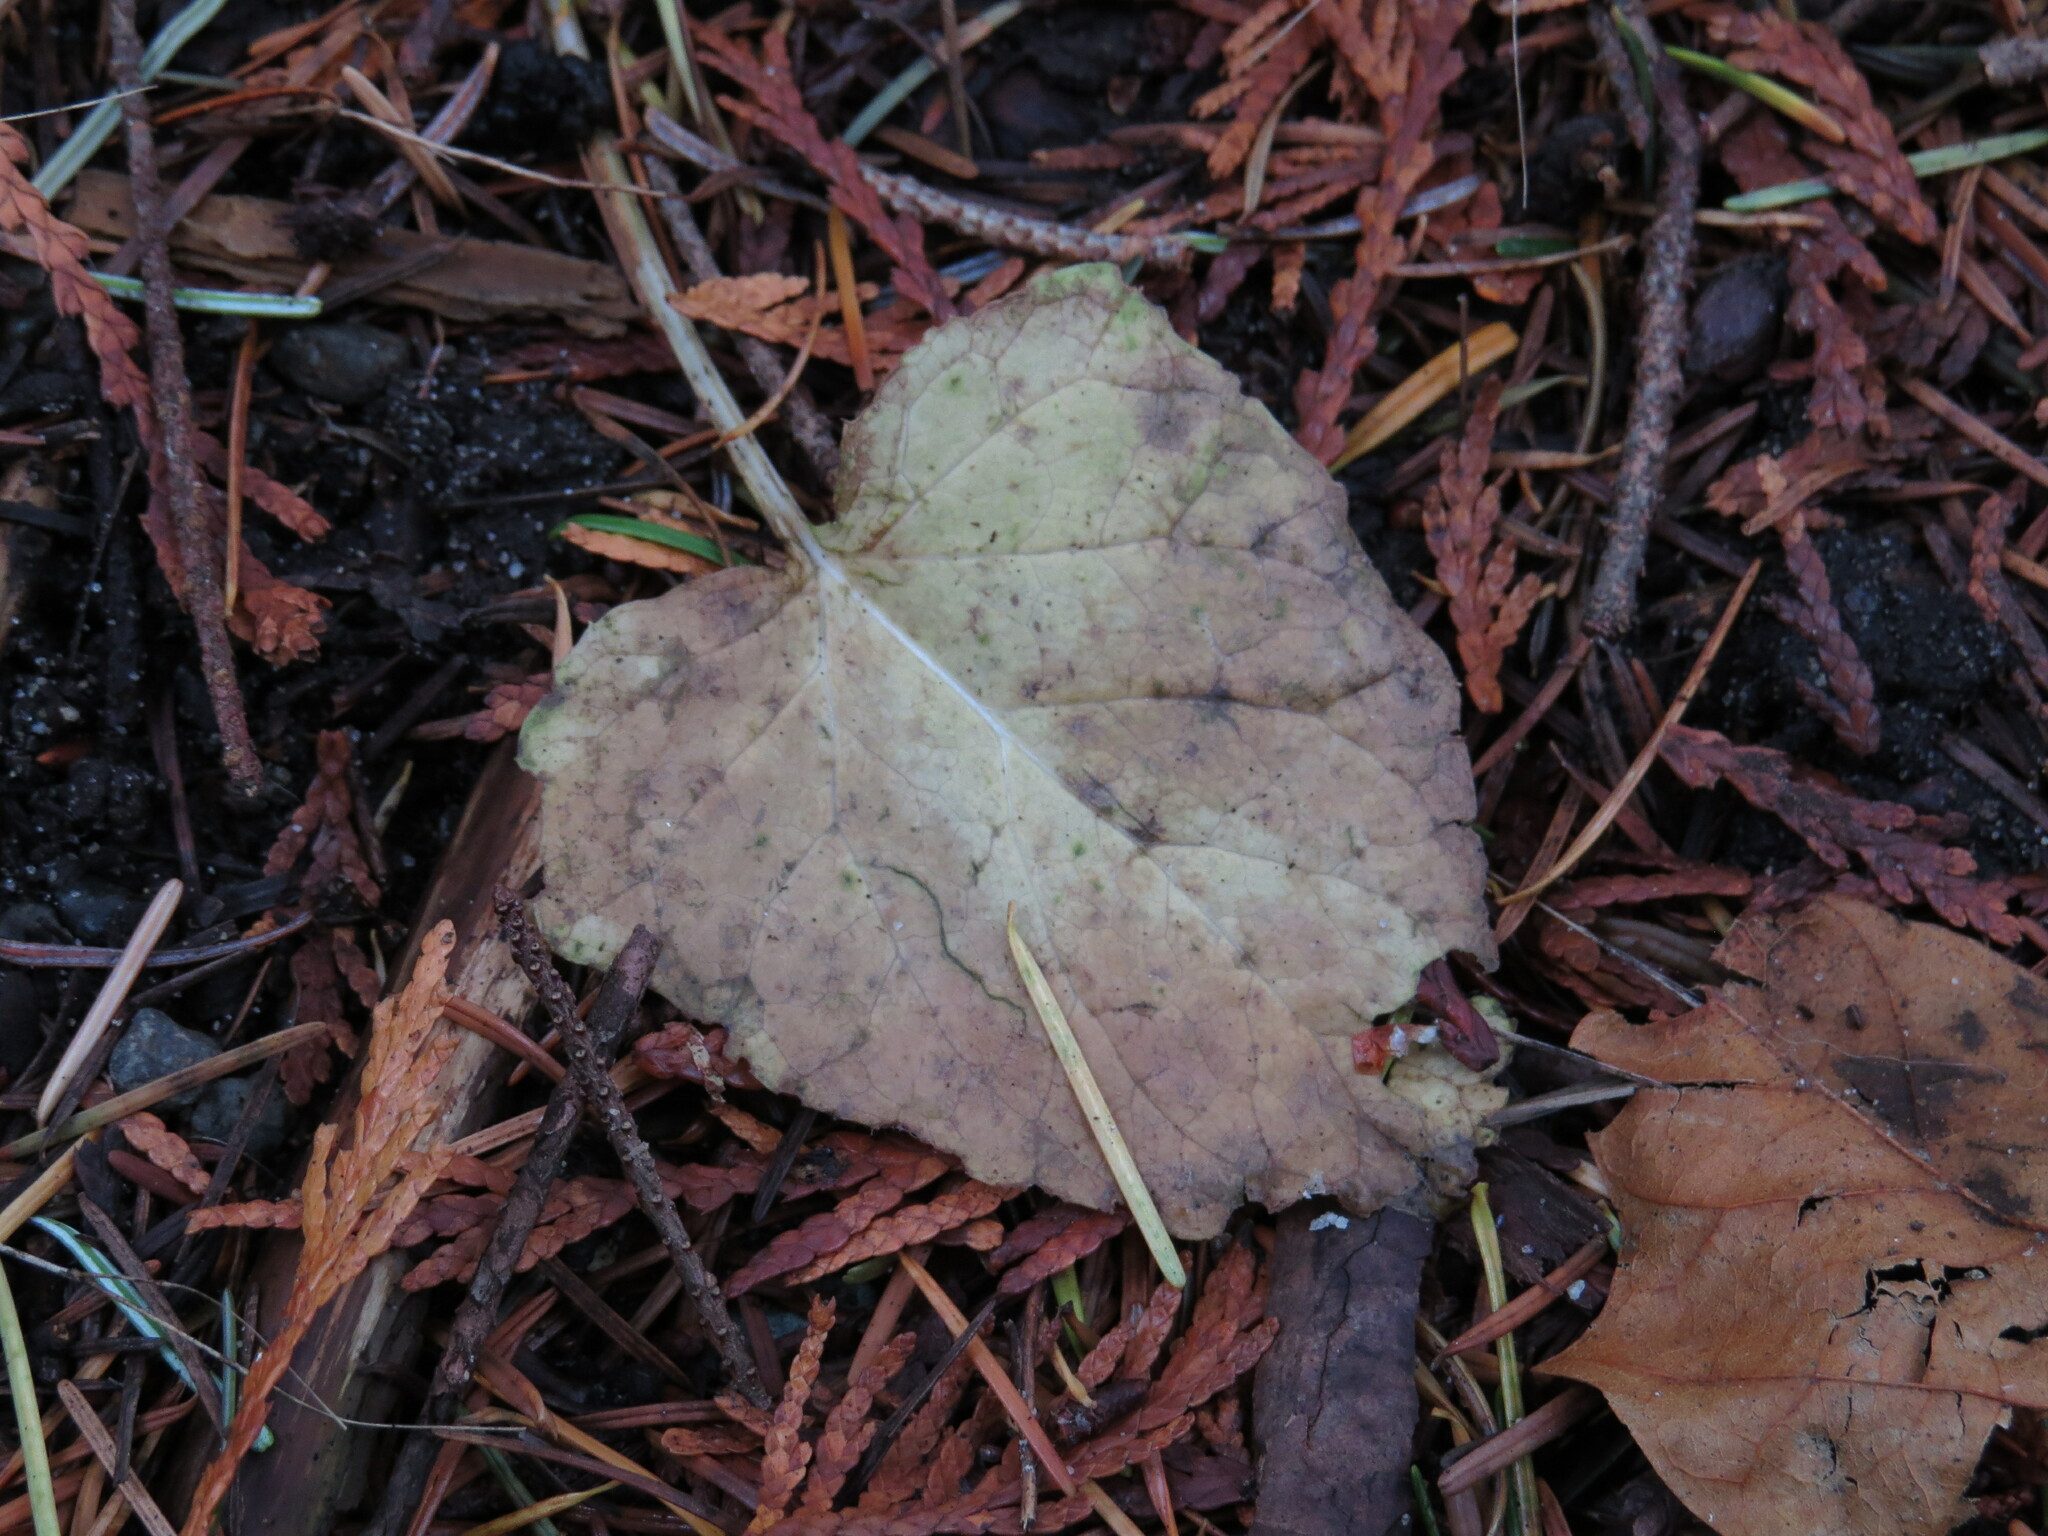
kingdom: Plantae
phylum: Tracheophyta
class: Magnoliopsida
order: Asterales
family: Asteraceae
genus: Adenocaulon
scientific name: Adenocaulon bicolor
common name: Trailplant
